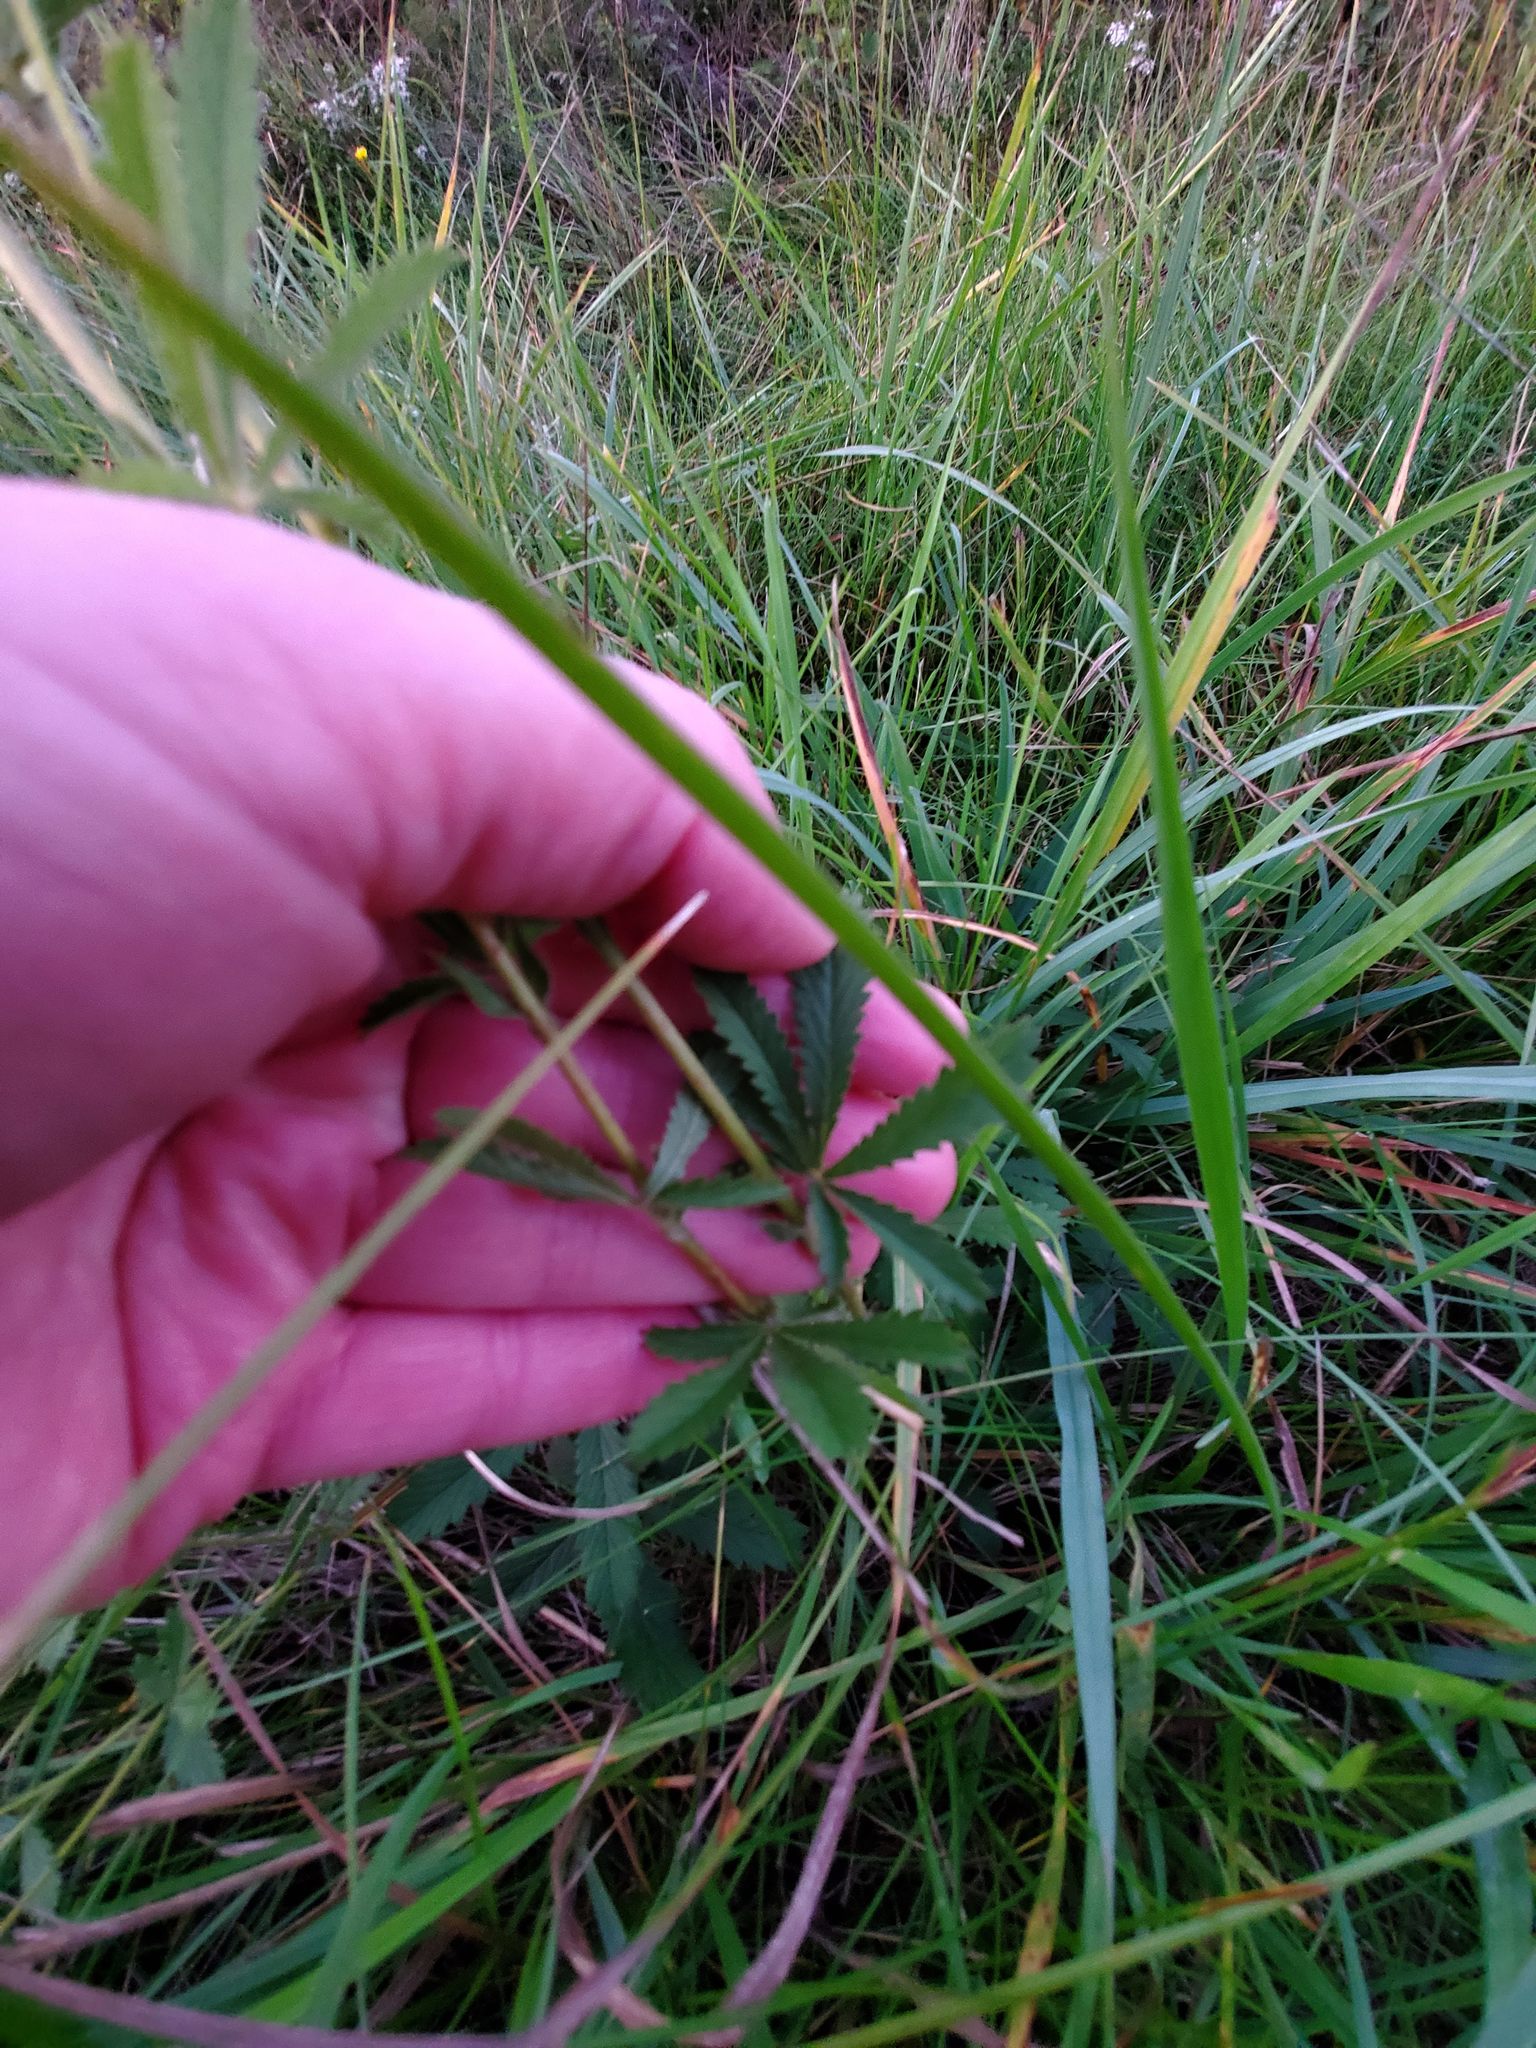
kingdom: Plantae
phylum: Tracheophyta
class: Magnoliopsida
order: Rosales
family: Rosaceae
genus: Potentilla
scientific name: Potentilla recta
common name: Sulphur cinquefoil
